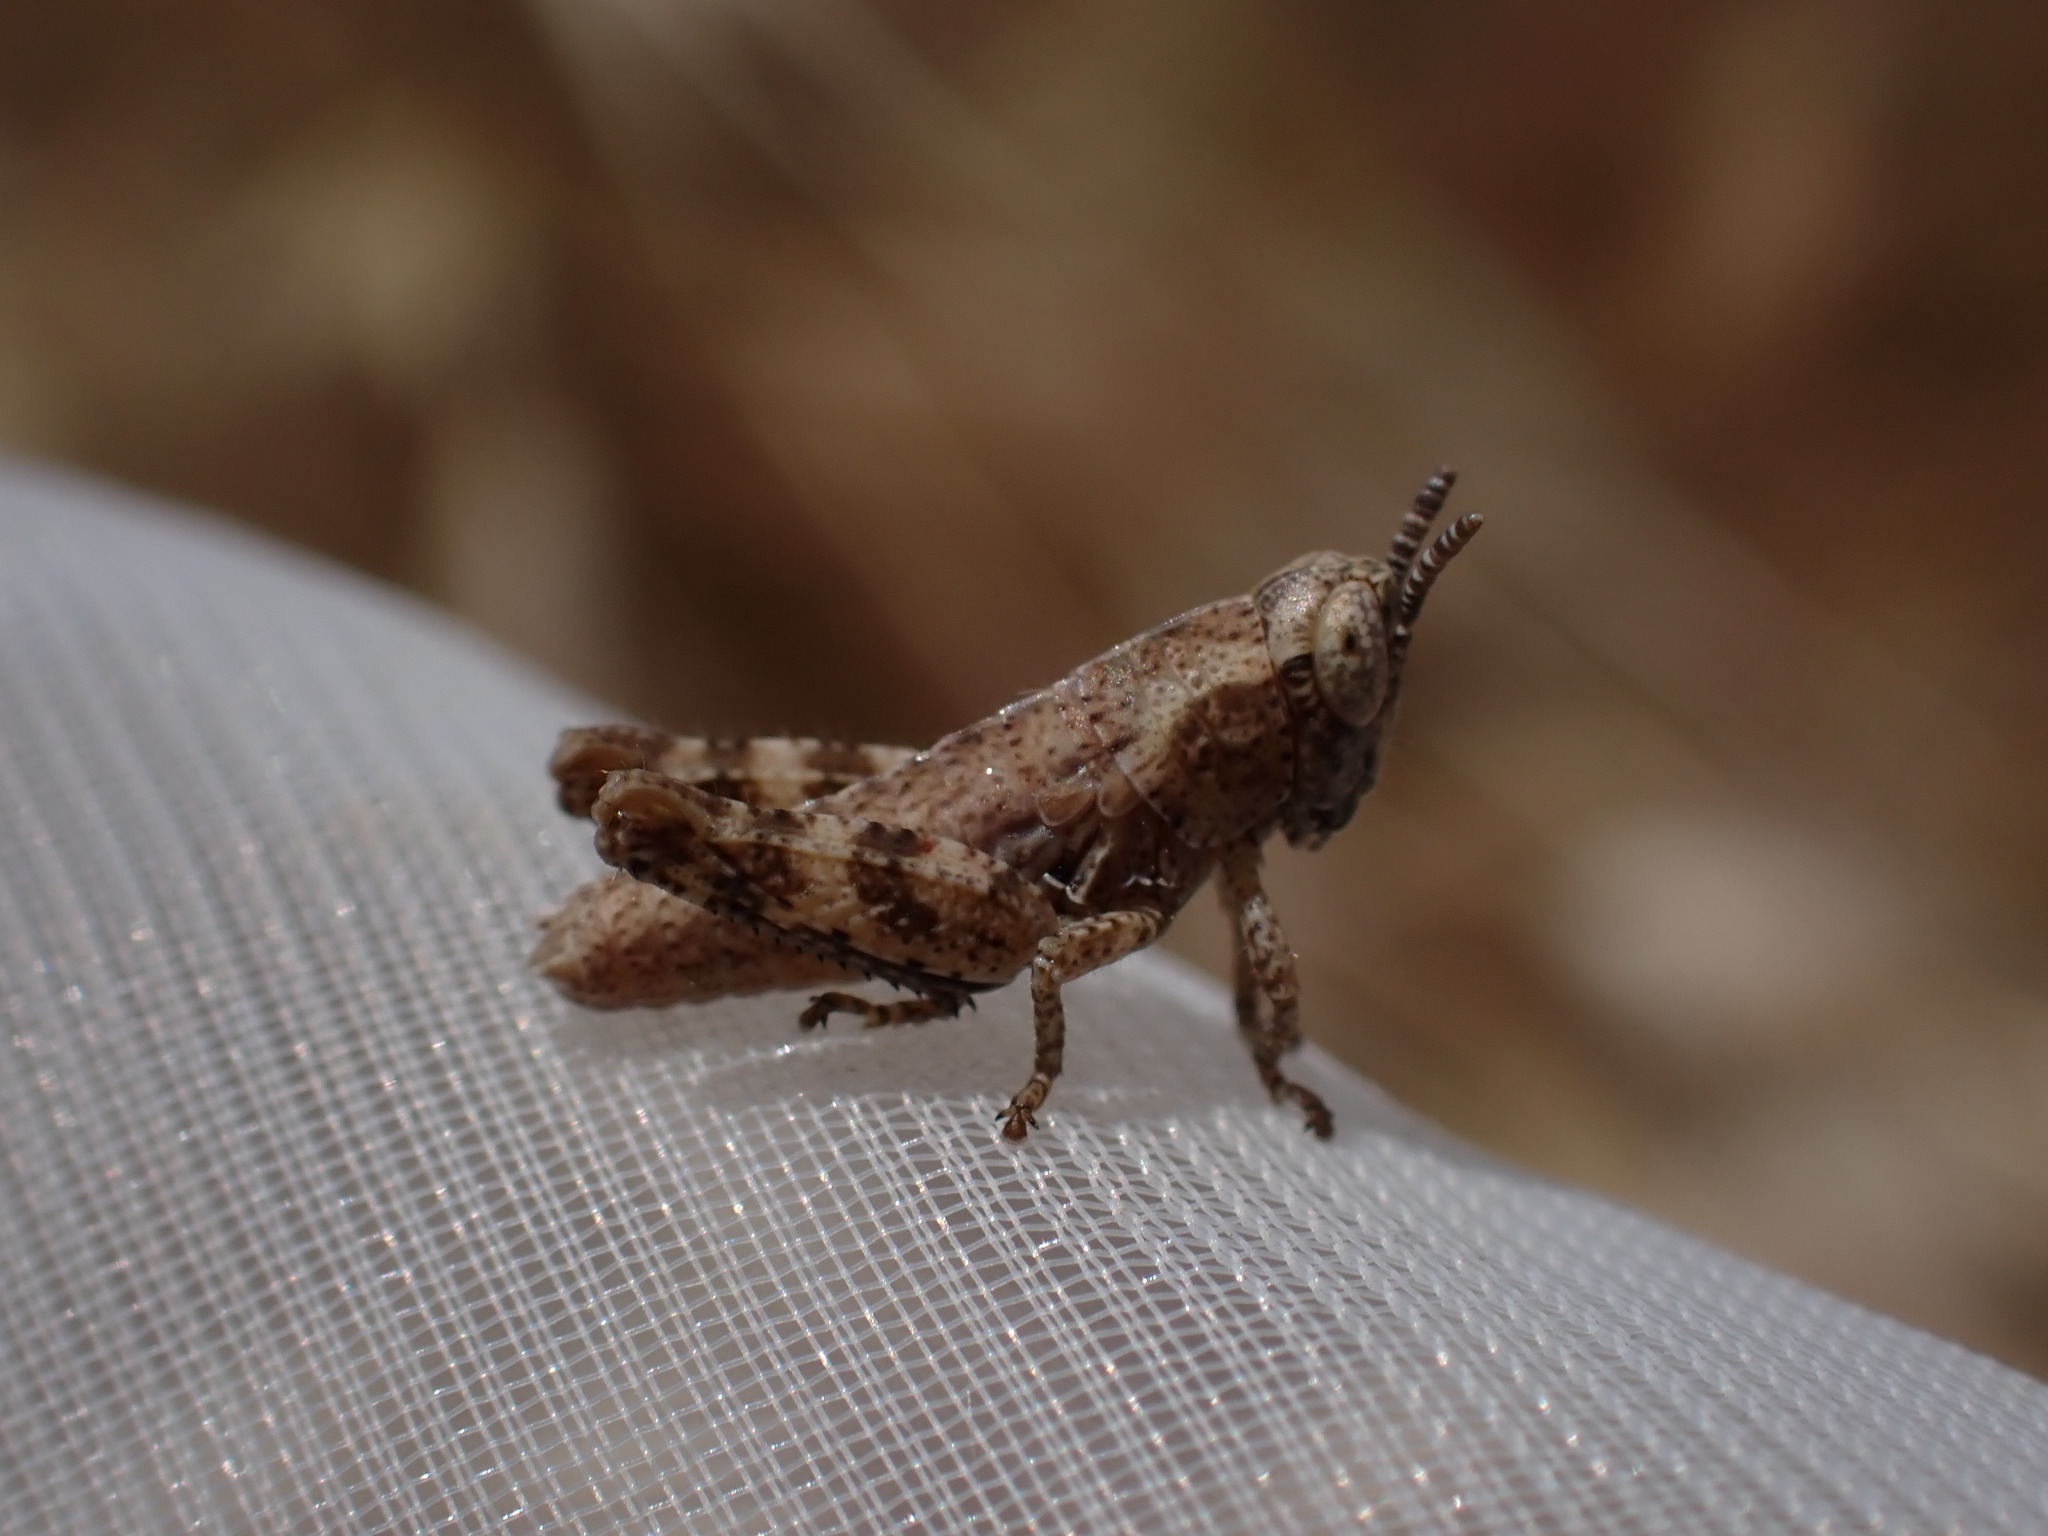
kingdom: Animalia
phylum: Arthropoda
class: Insecta
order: Orthoptera
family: Acrididae
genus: Pezotettix
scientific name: Pezotettix giornae
